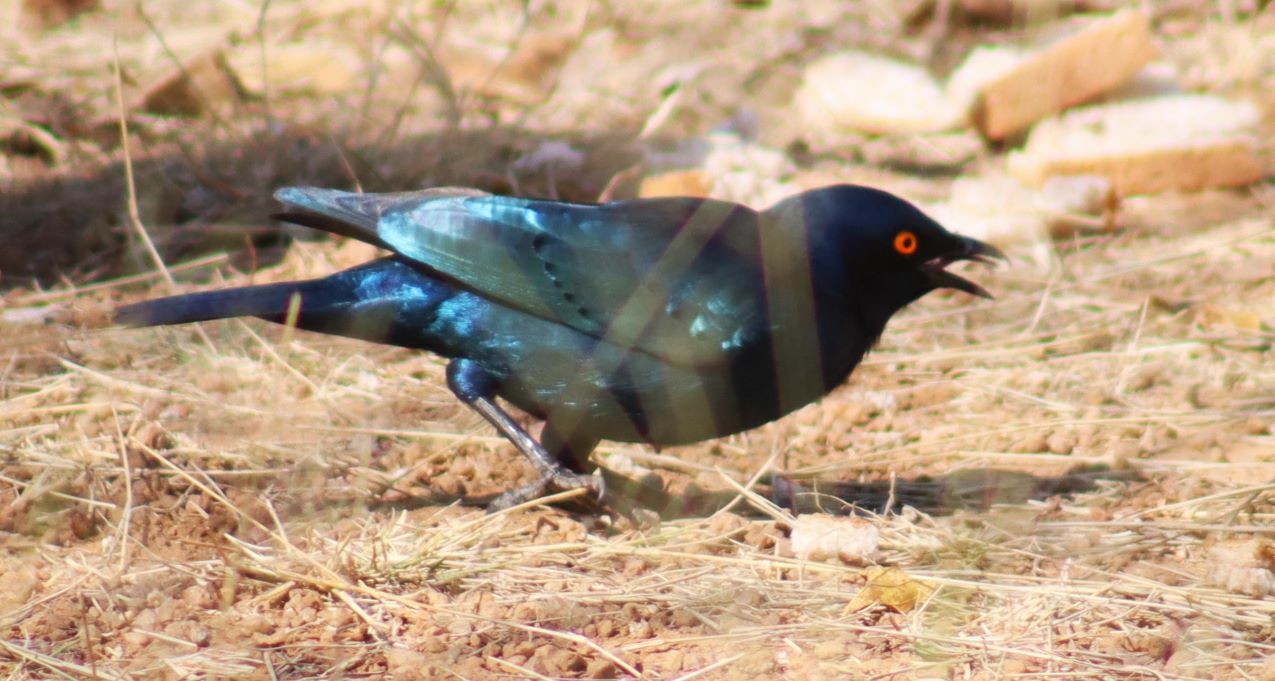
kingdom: Animalia
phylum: Chordata
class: Aves
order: Passeriformes
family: Sturnidae
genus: Lamprotornis
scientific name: Lamprotornis nitens
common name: Cape starling
